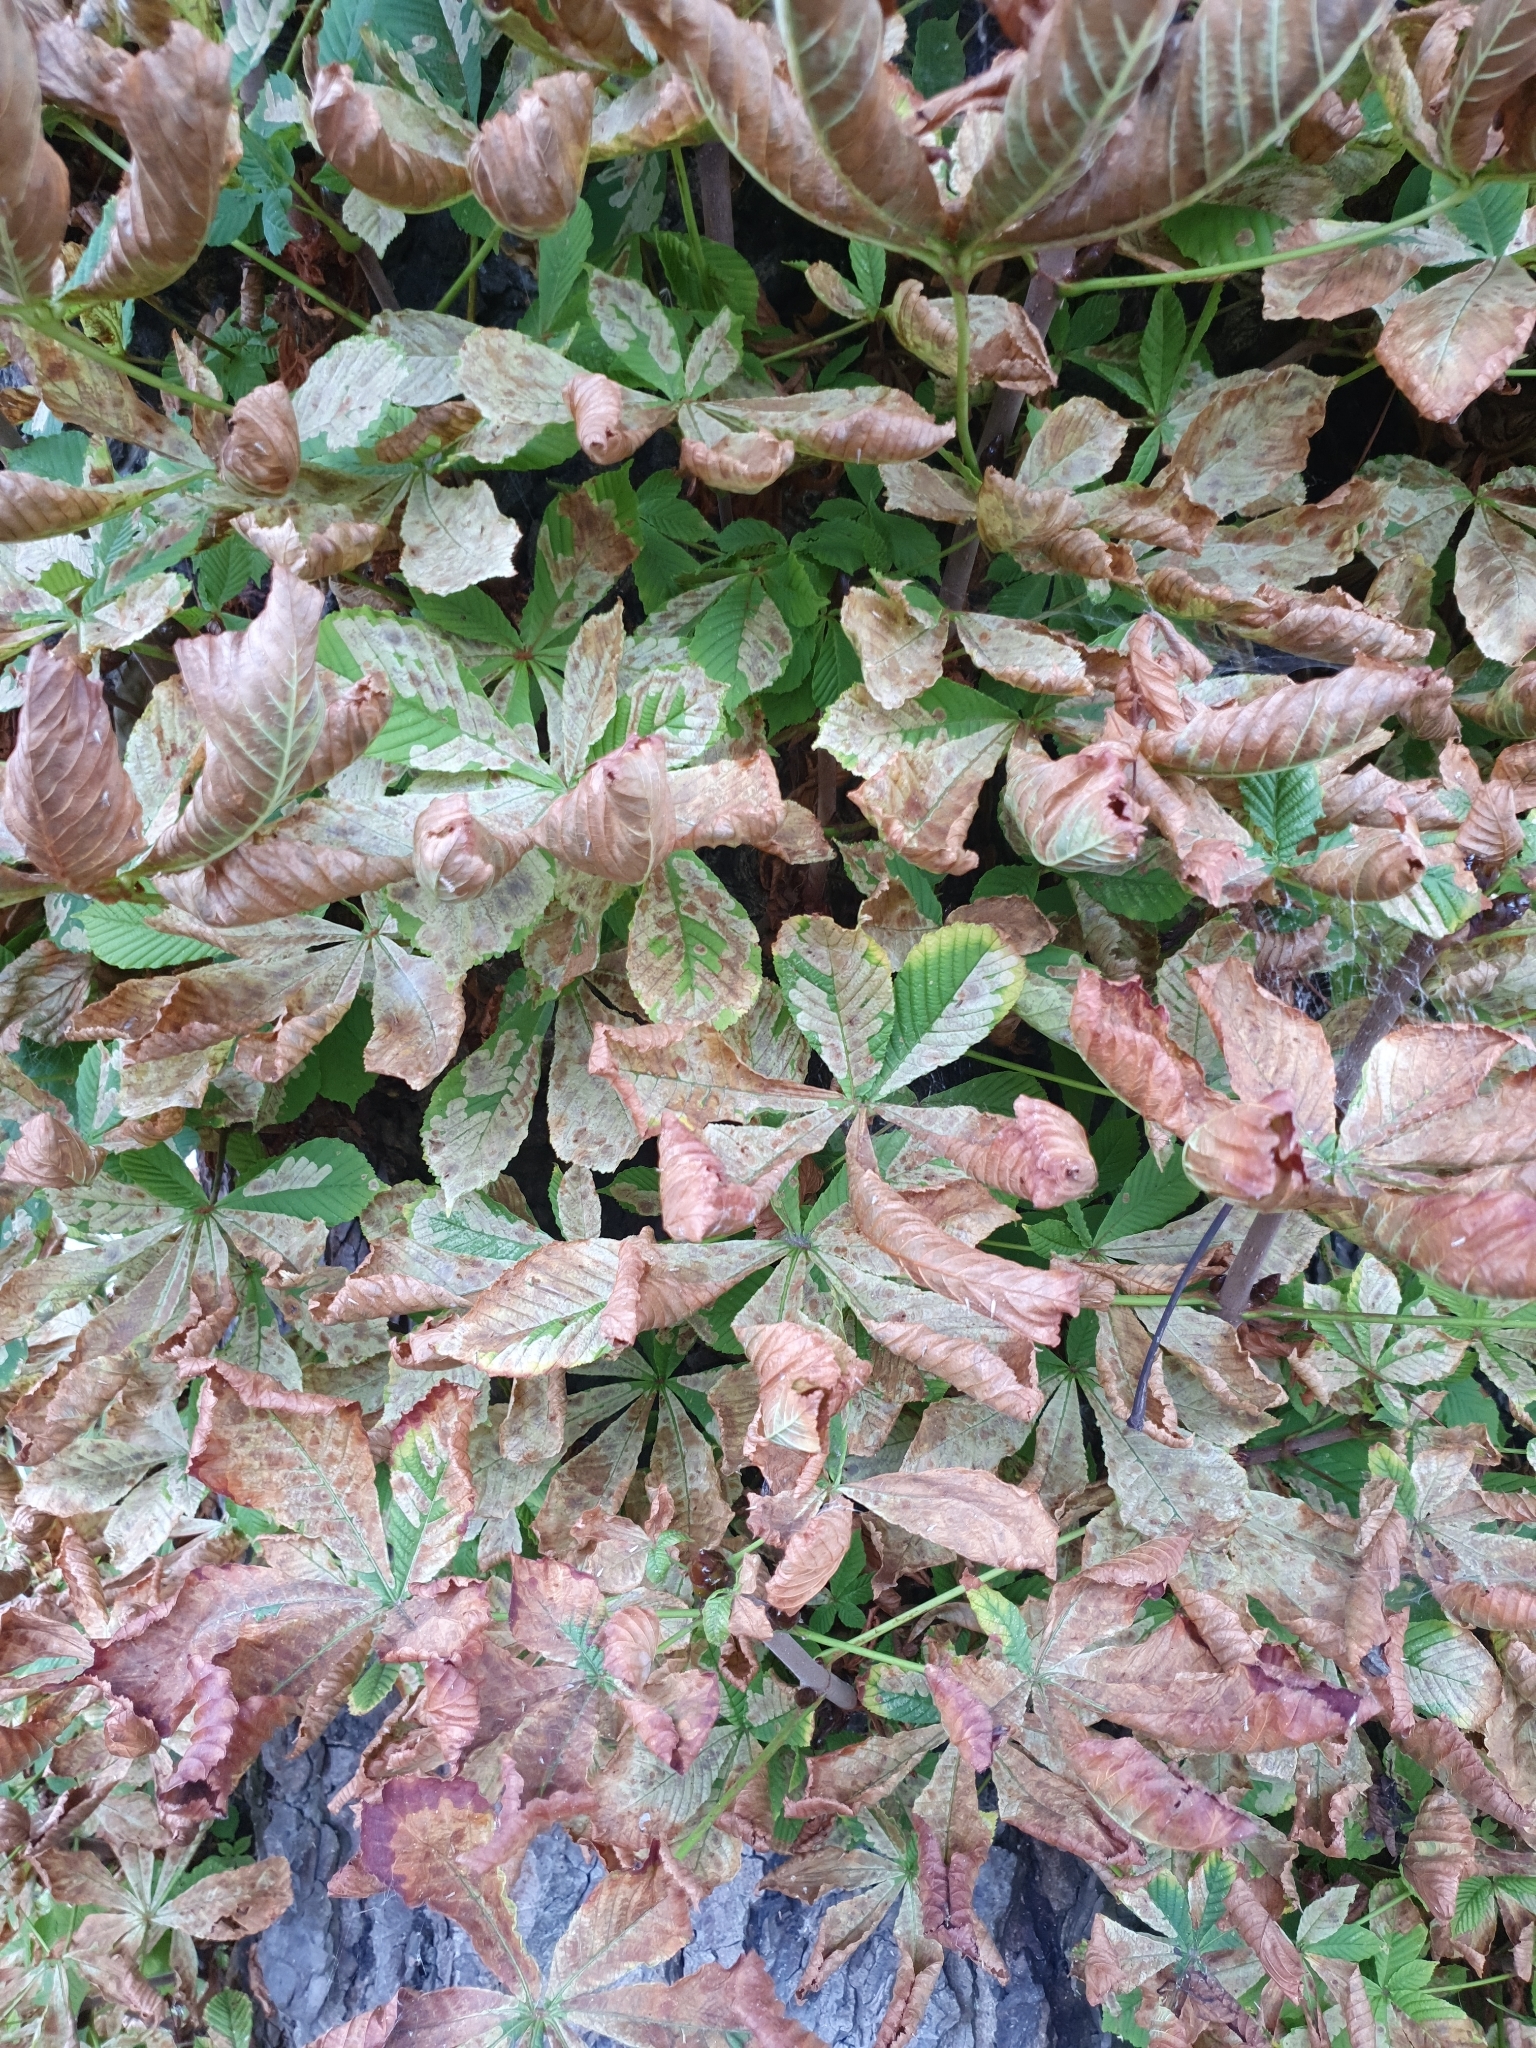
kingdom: Plantae
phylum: Tracheophyta
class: Magnoliopsida
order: Sapindales
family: Sapindaceae
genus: Aesculus
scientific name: Aesculus hippocastanum
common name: Horse-chestnut
